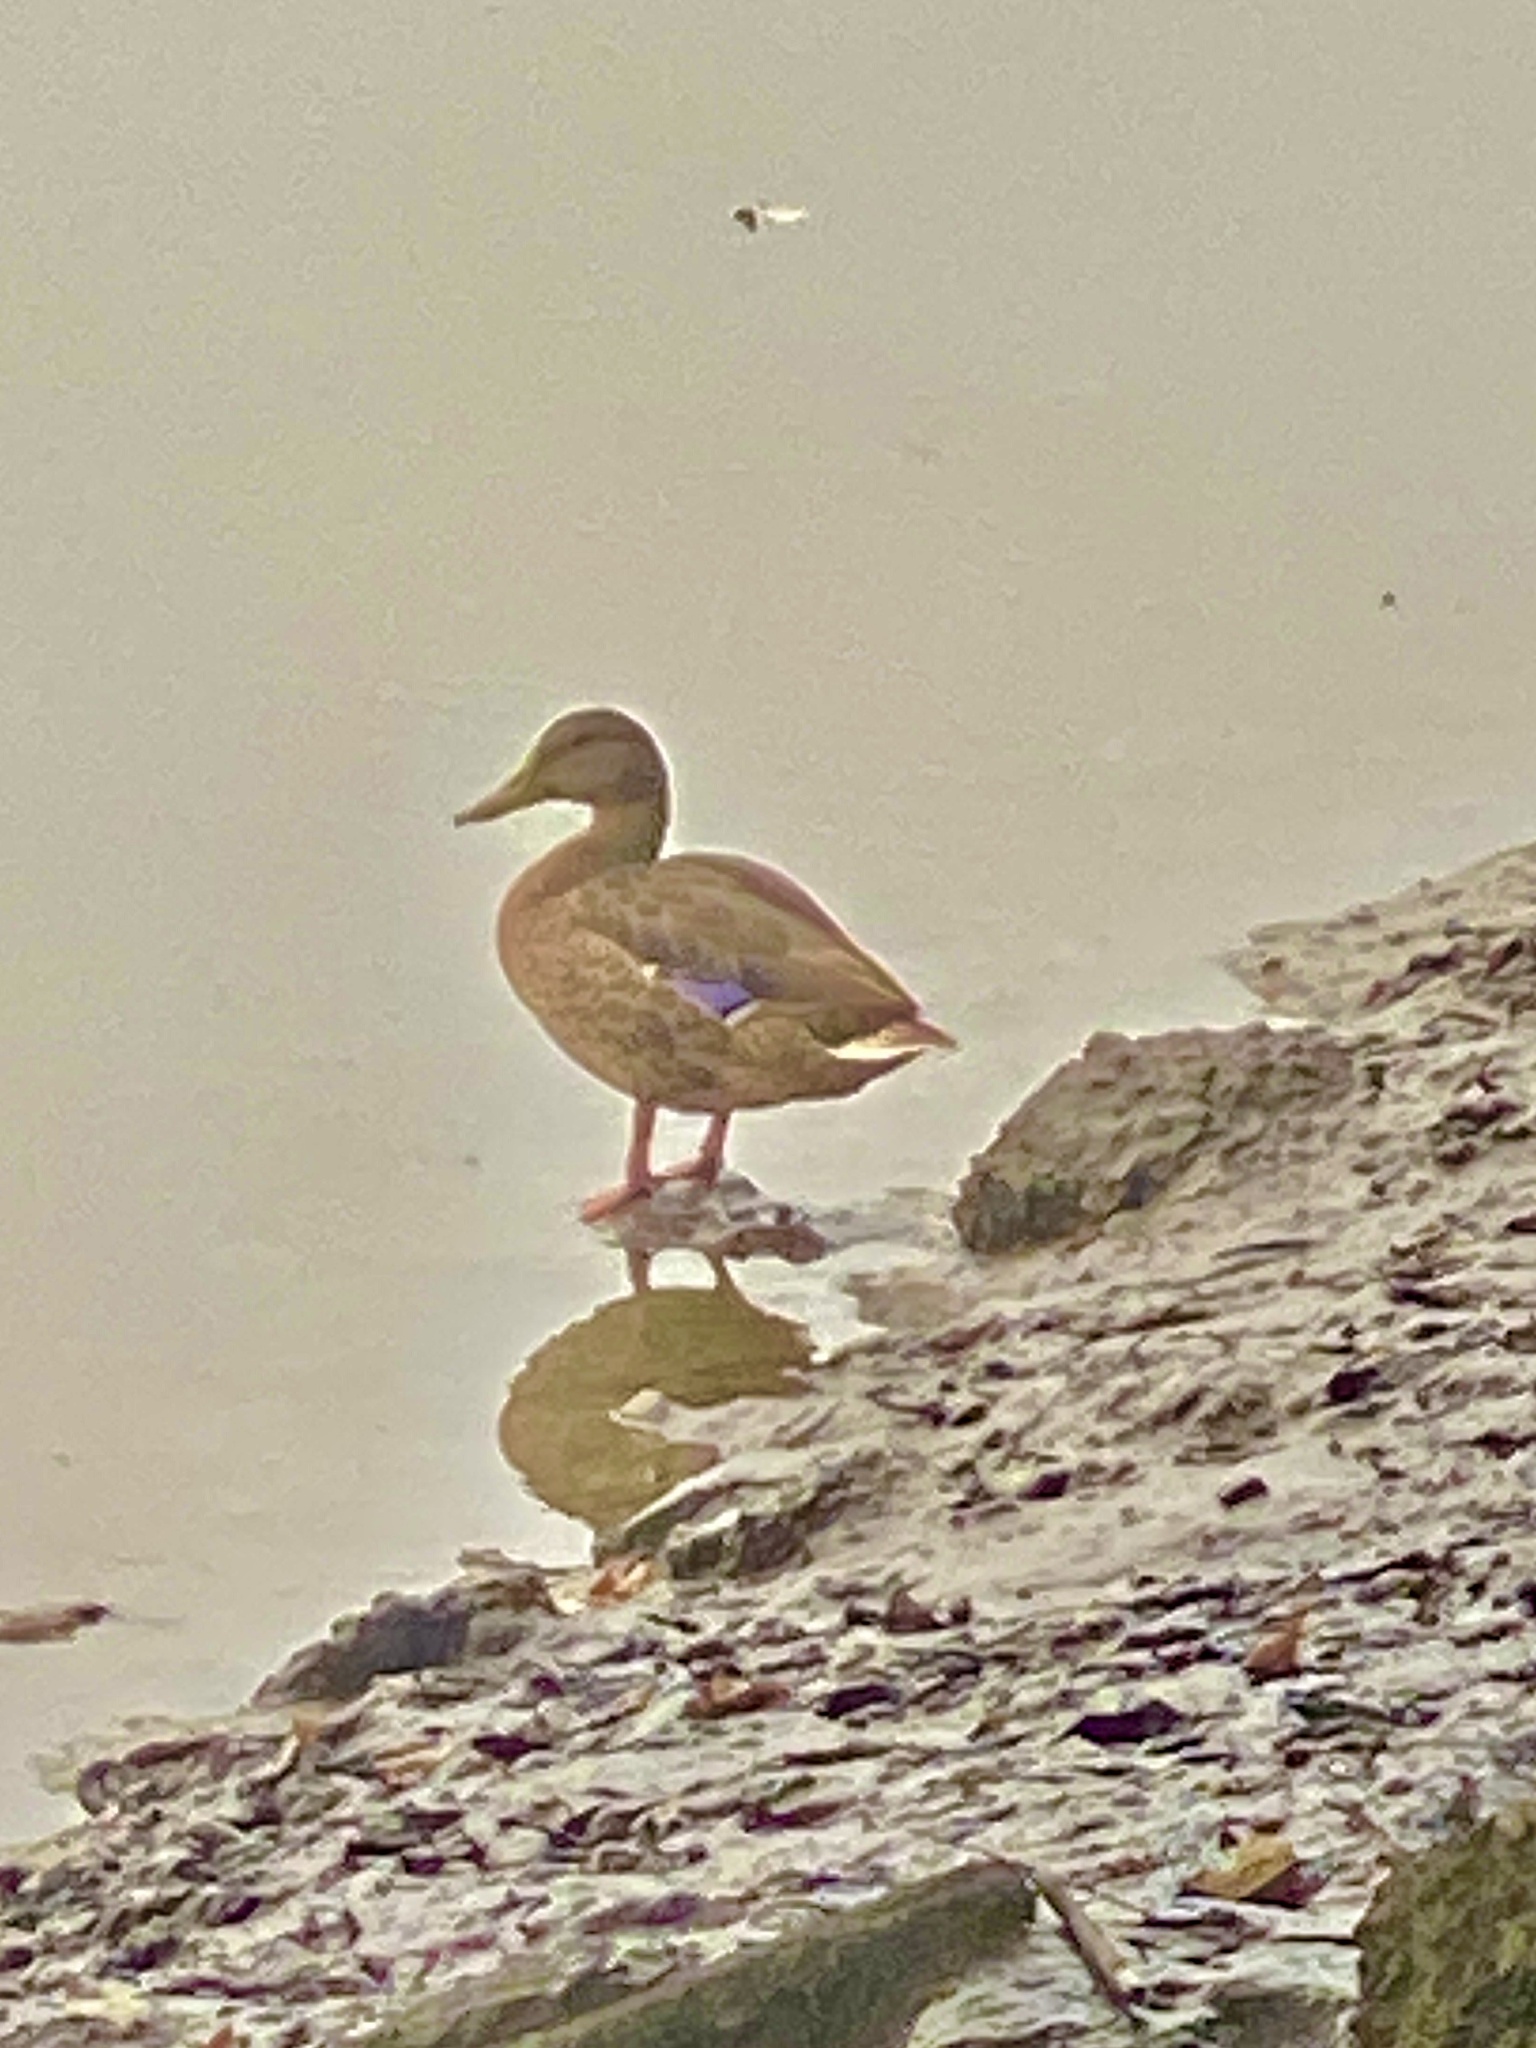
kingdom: Animalia
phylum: Chordata
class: Aves
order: Anseriformes
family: Anatidae
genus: Anas
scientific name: Anas platyrhynchos
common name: Mallard
